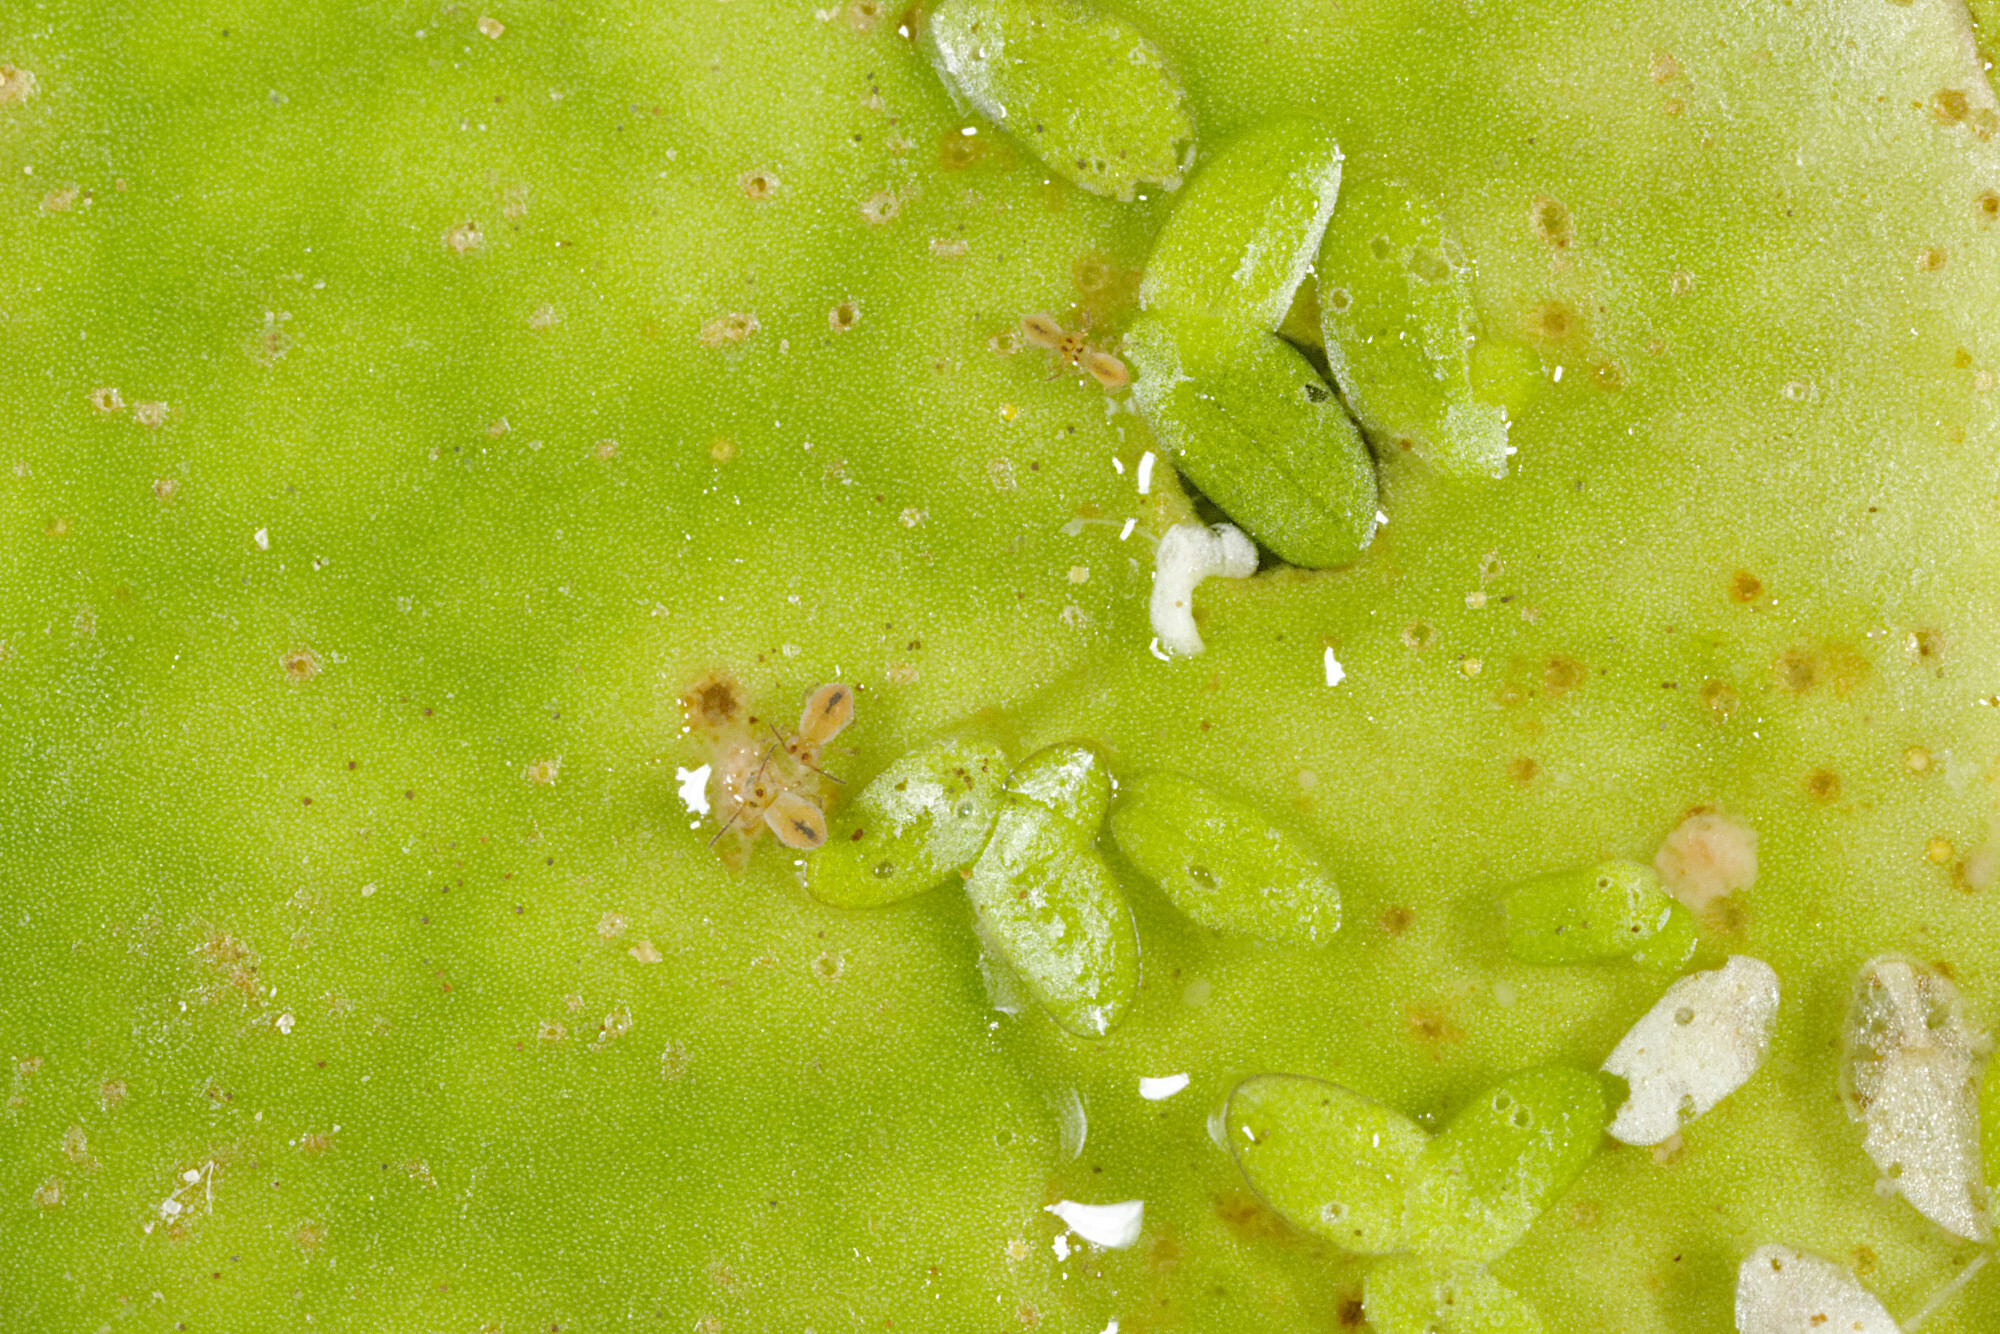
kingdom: Animalia
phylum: Arthropoda
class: Collembola
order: Symphypleona
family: Sminthurididae
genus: Sminthurides
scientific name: Sminthurides aquaticus
